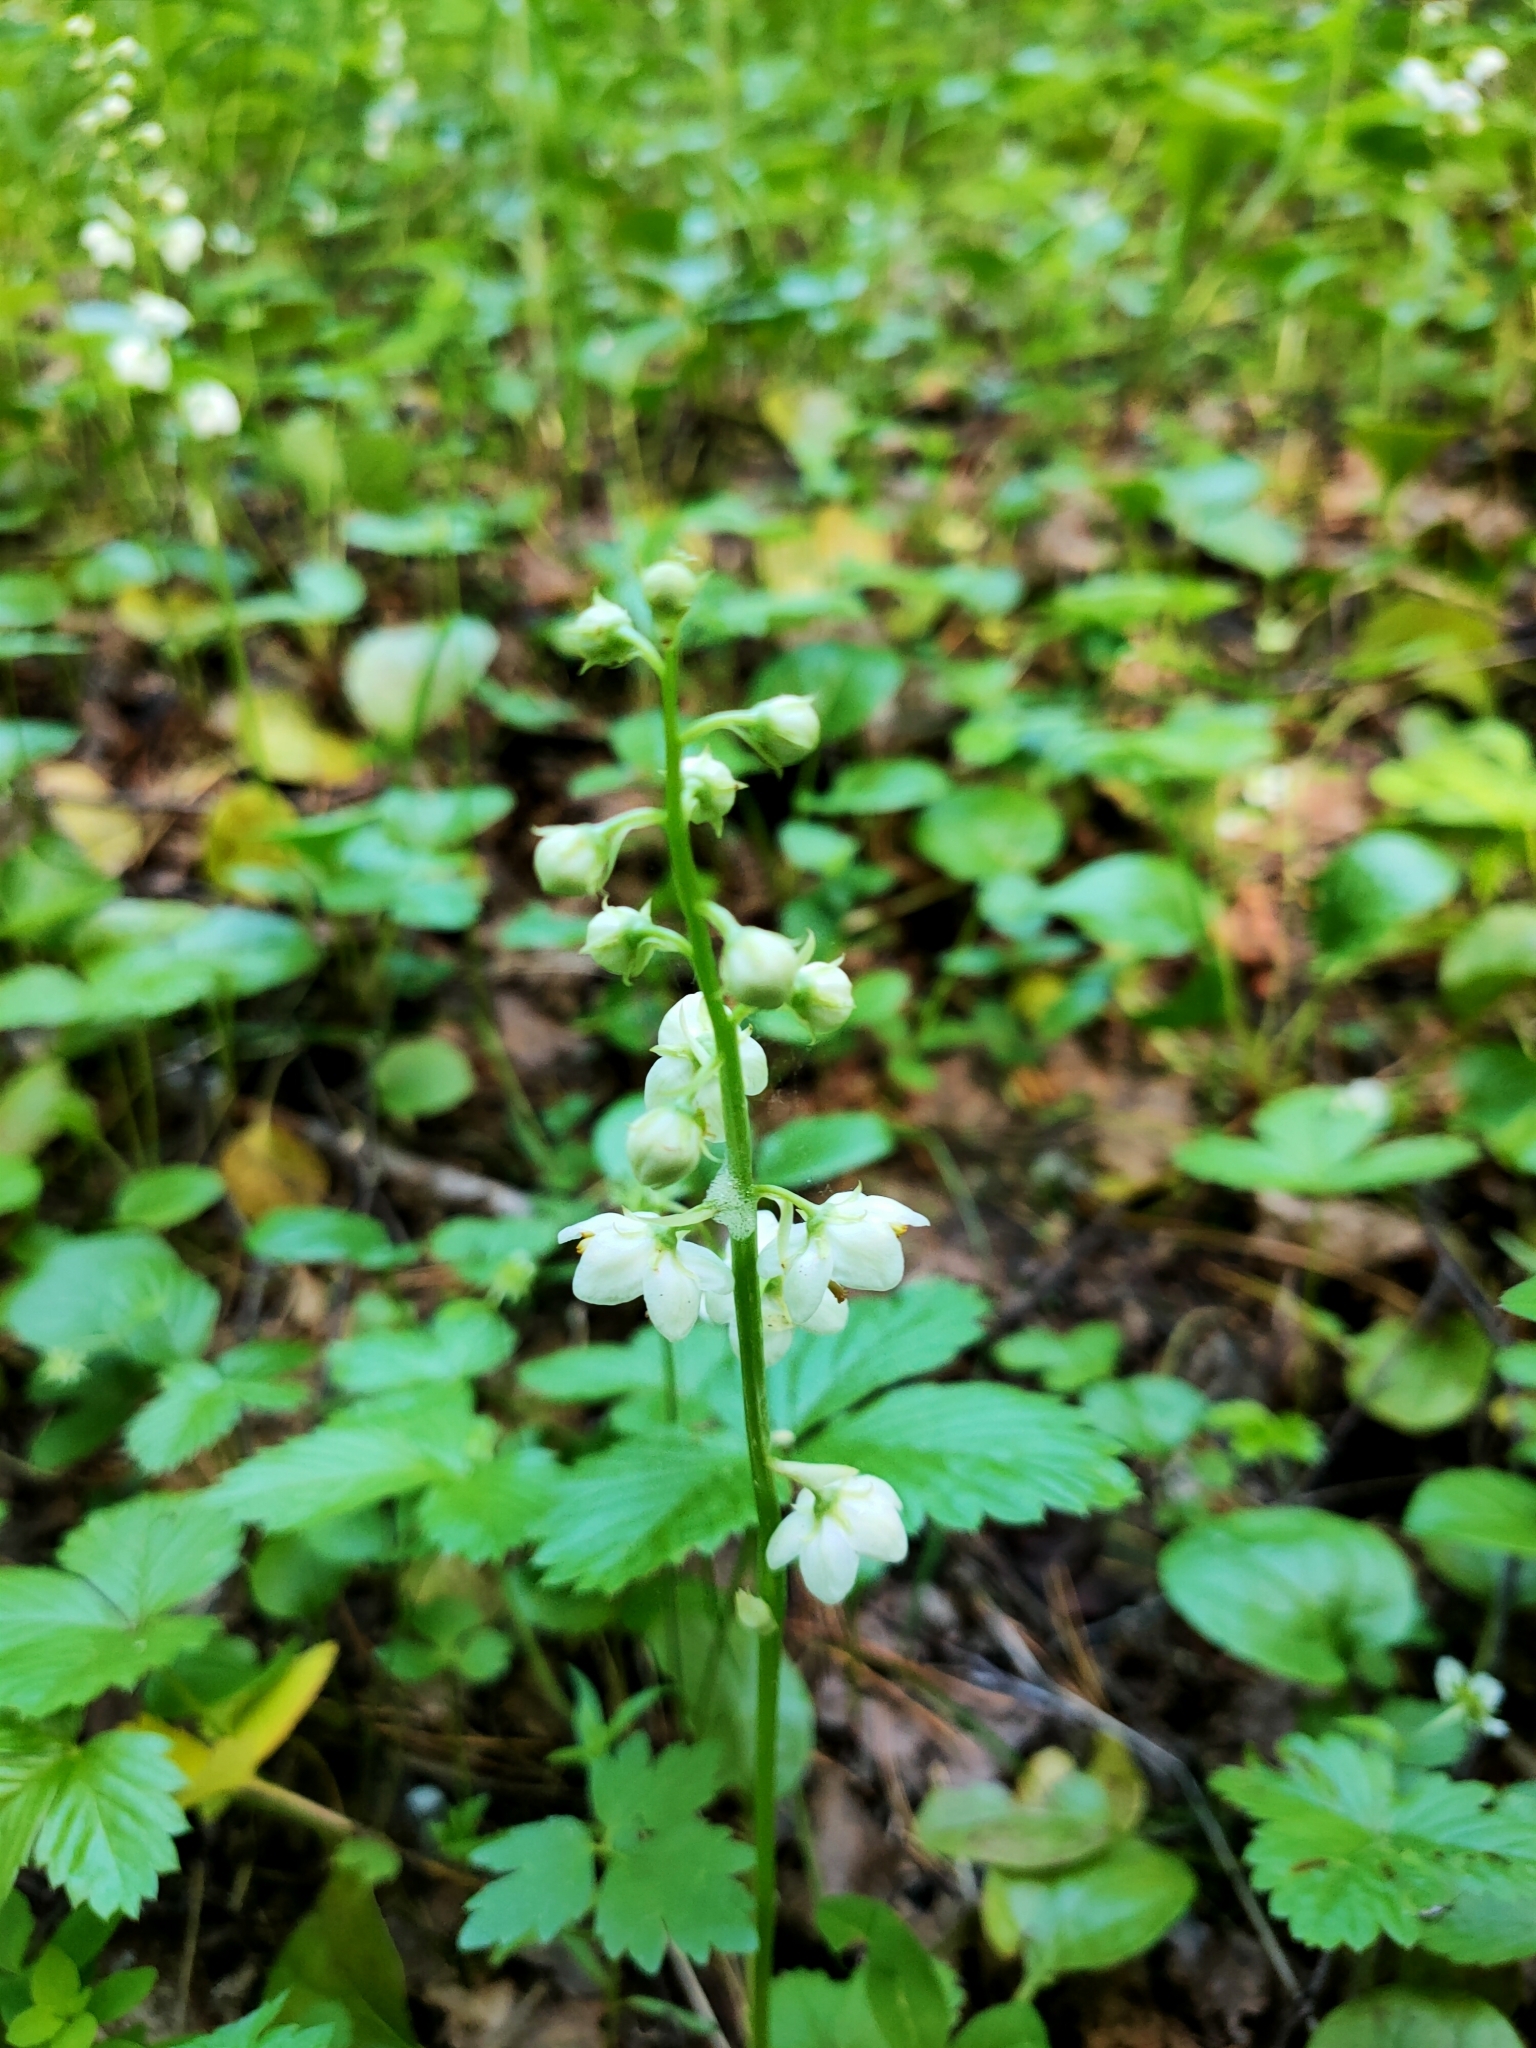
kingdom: Plantae
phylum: Tracheophyta
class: Magnoliopsida
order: Ericales
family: Ericaceae
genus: Pyrola
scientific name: Pyrola rotundifolia
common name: Round-leaved wintergreen
